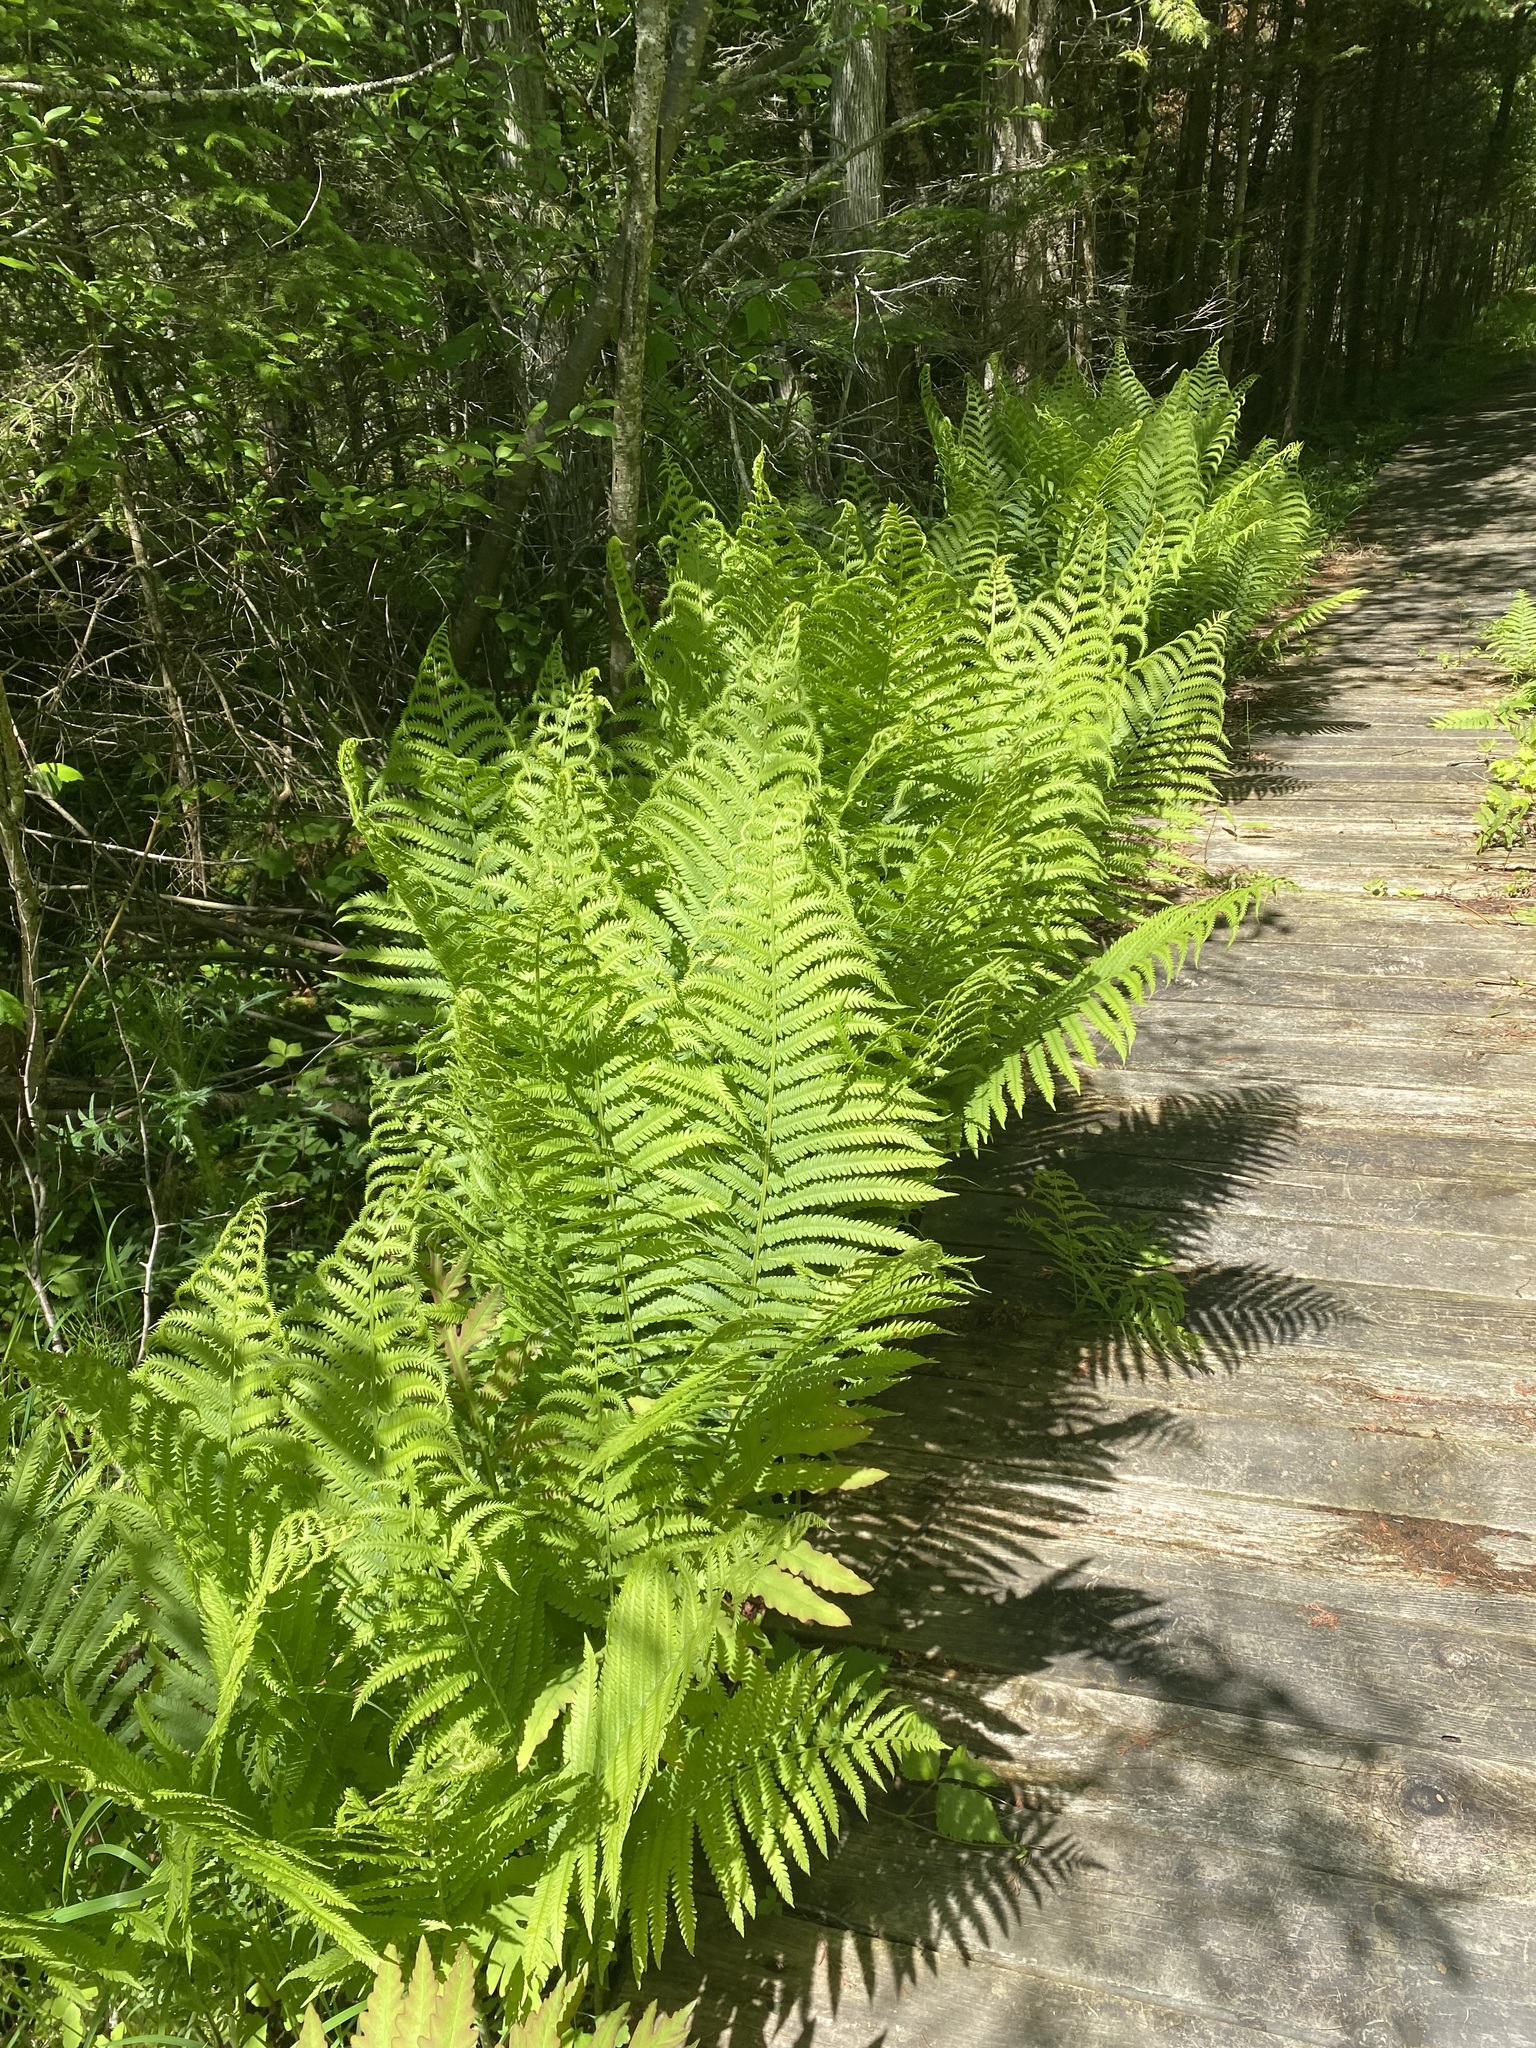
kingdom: Plantae
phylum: Tracheophyta
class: Polypodiopsida
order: Polypodiales
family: Onocleaceae
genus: Matteuccia
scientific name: Matteuccia struthiopteris
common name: Ostrich fern
